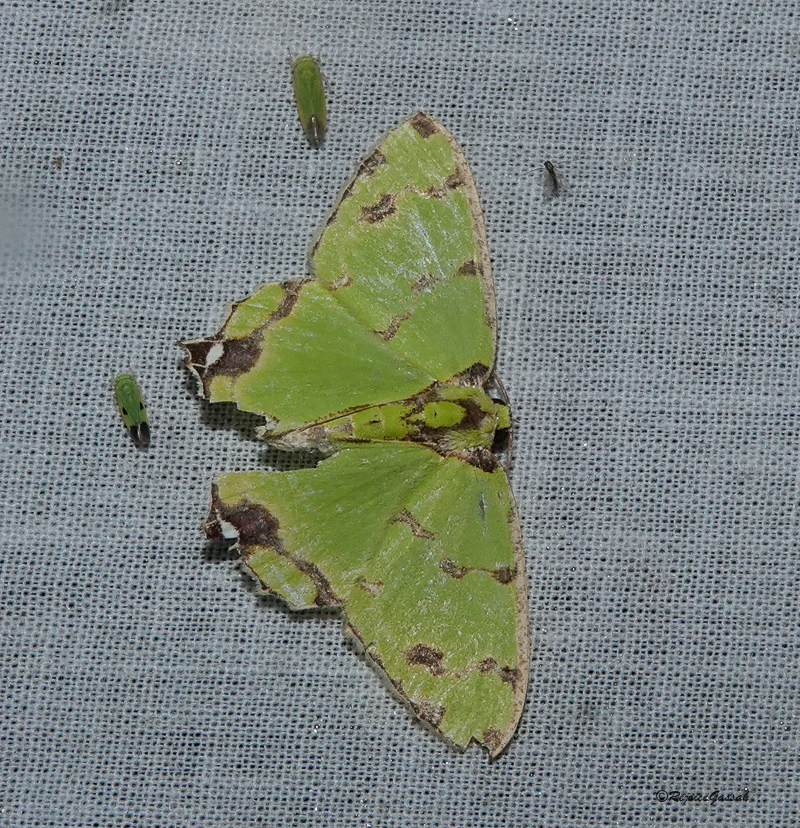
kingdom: Animalia
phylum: Arthropoda
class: Insecta
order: Lepidoptera
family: Geometridae
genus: Agathia
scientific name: Agathia lycaenaria
